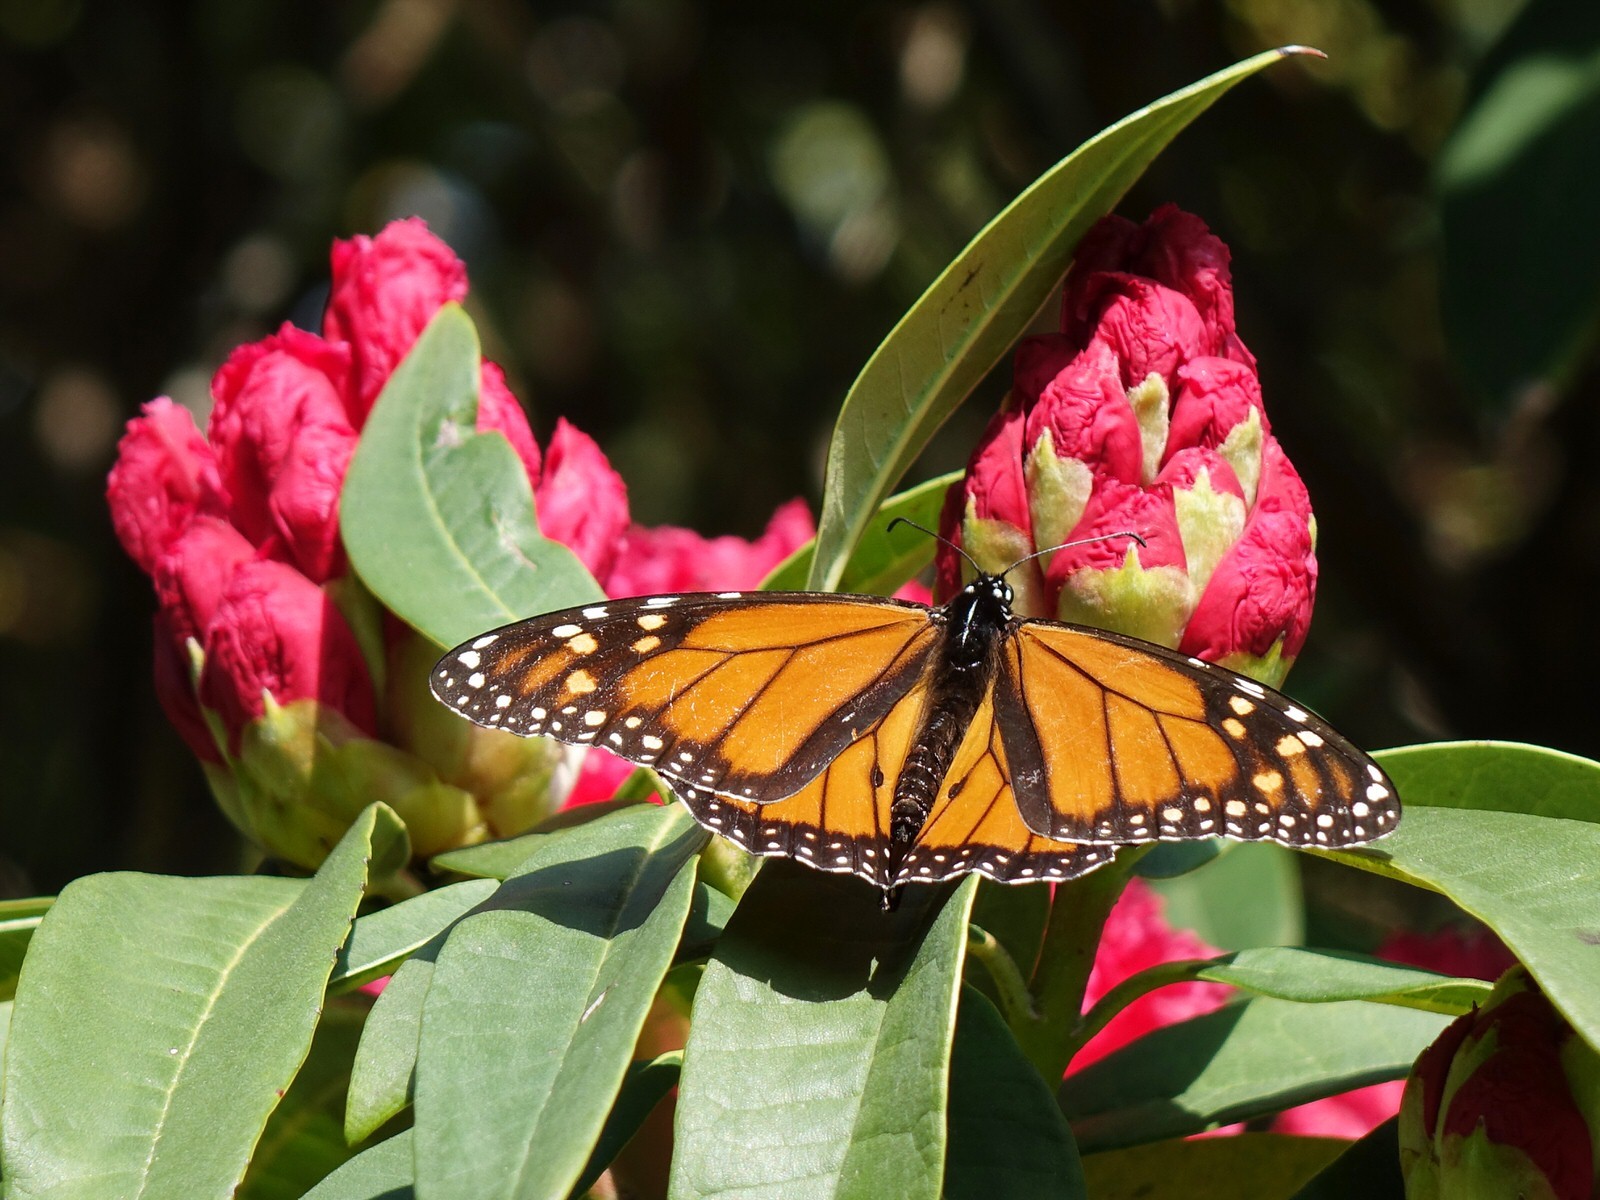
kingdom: Animalia
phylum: Arthropoda
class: Insecta
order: Lepidoptera
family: Nymphalidae
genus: Danaus
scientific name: Danaus plexippus
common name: Monarch
